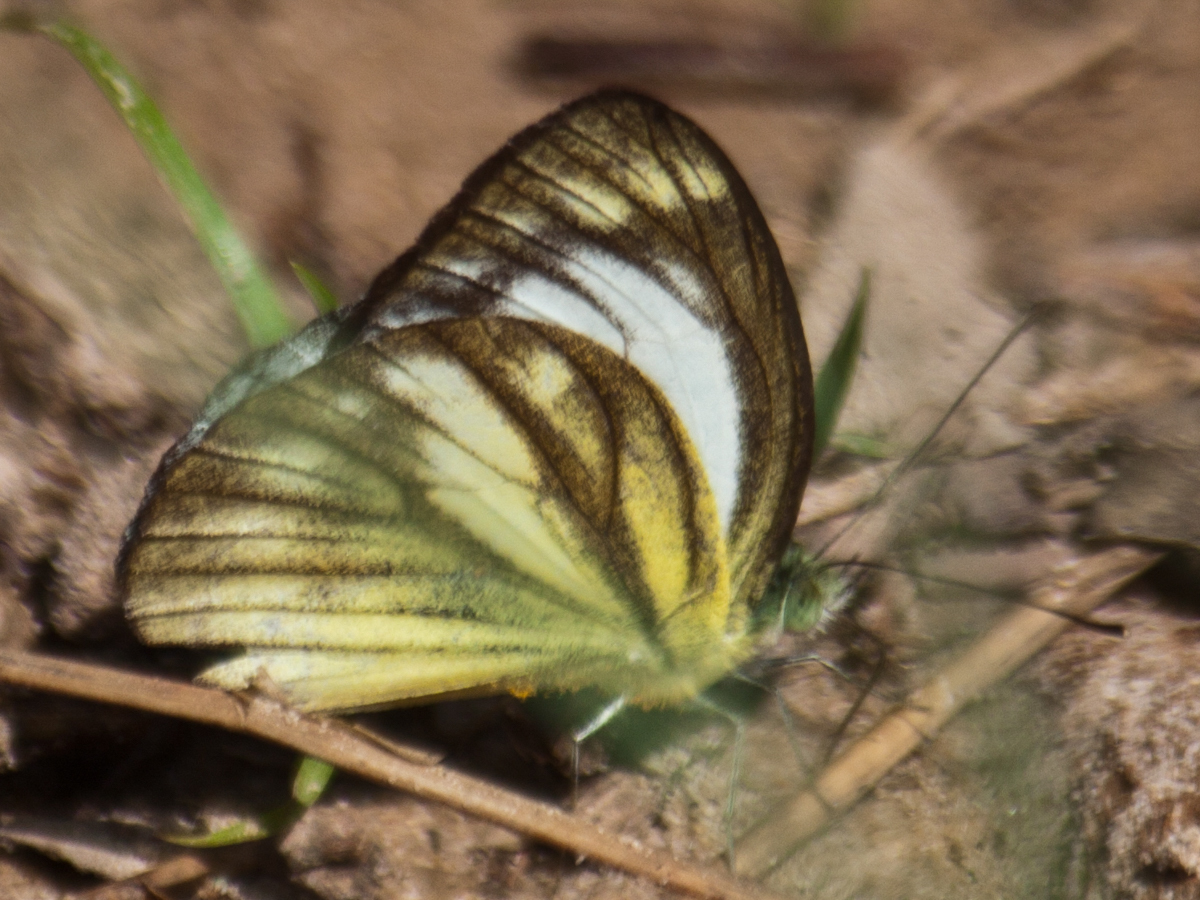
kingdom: Animalia
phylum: Arthropoda
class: Insecta
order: Lepidoptera
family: Pieridae
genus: Cepora
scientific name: Cepora nadina
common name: Lesser gull
